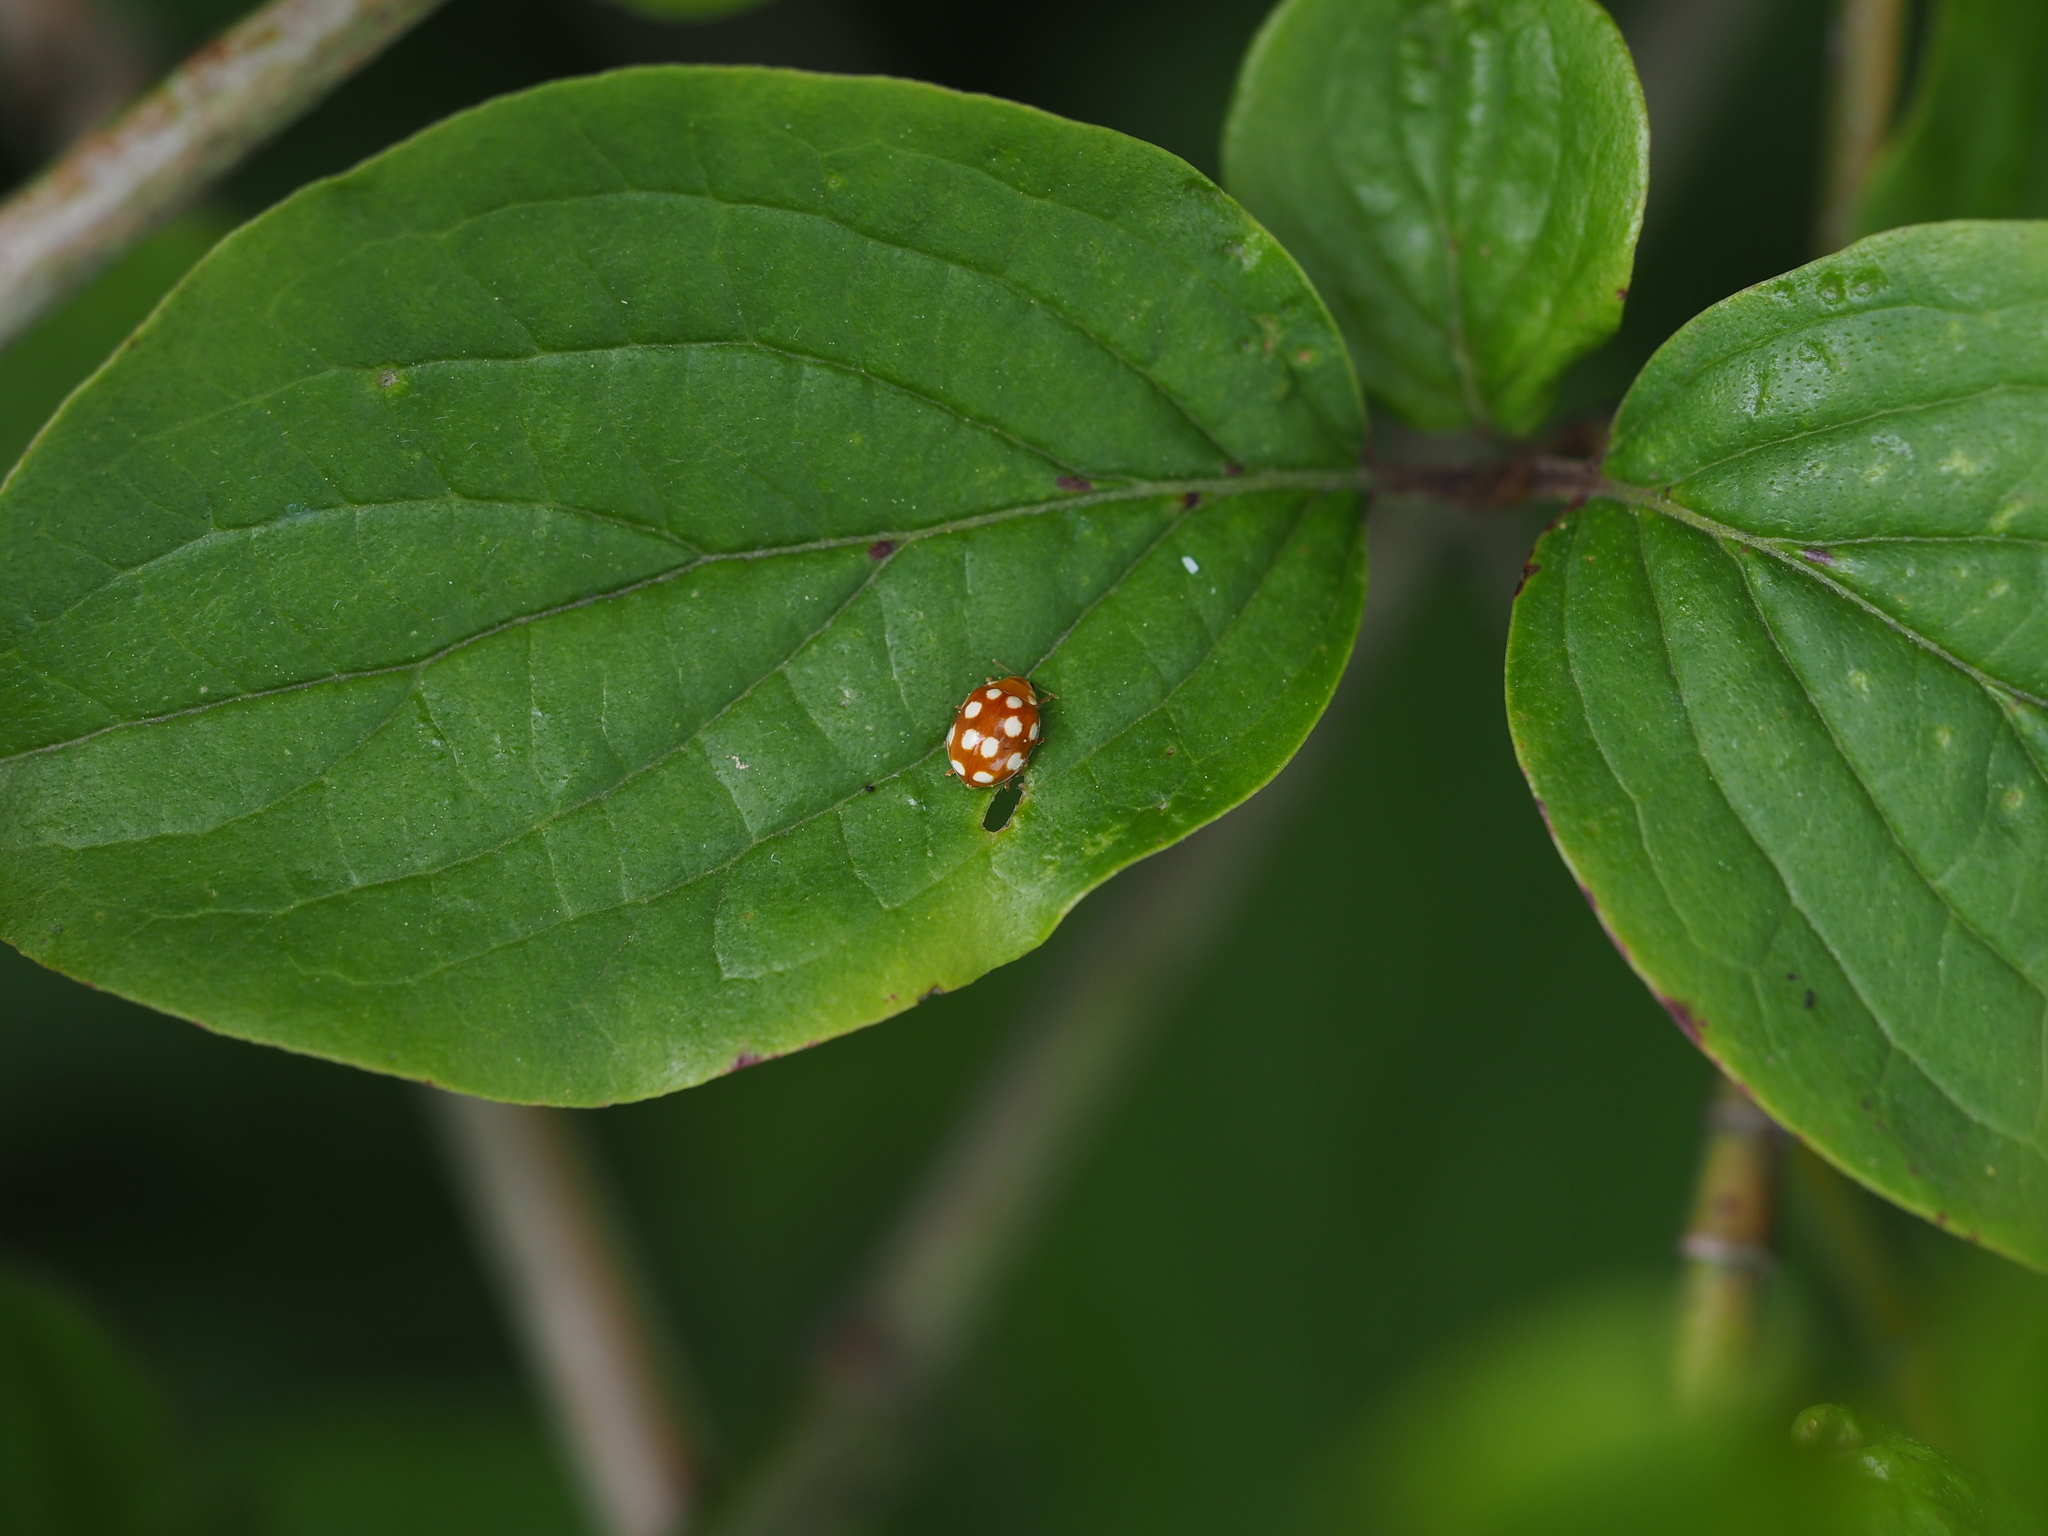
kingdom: Animalia
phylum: Arthropoda
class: Insecta
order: Coleoptera
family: Coccinellidae
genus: Vibidia
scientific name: Vibidia duodecimguttata
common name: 12-spot ladybird
